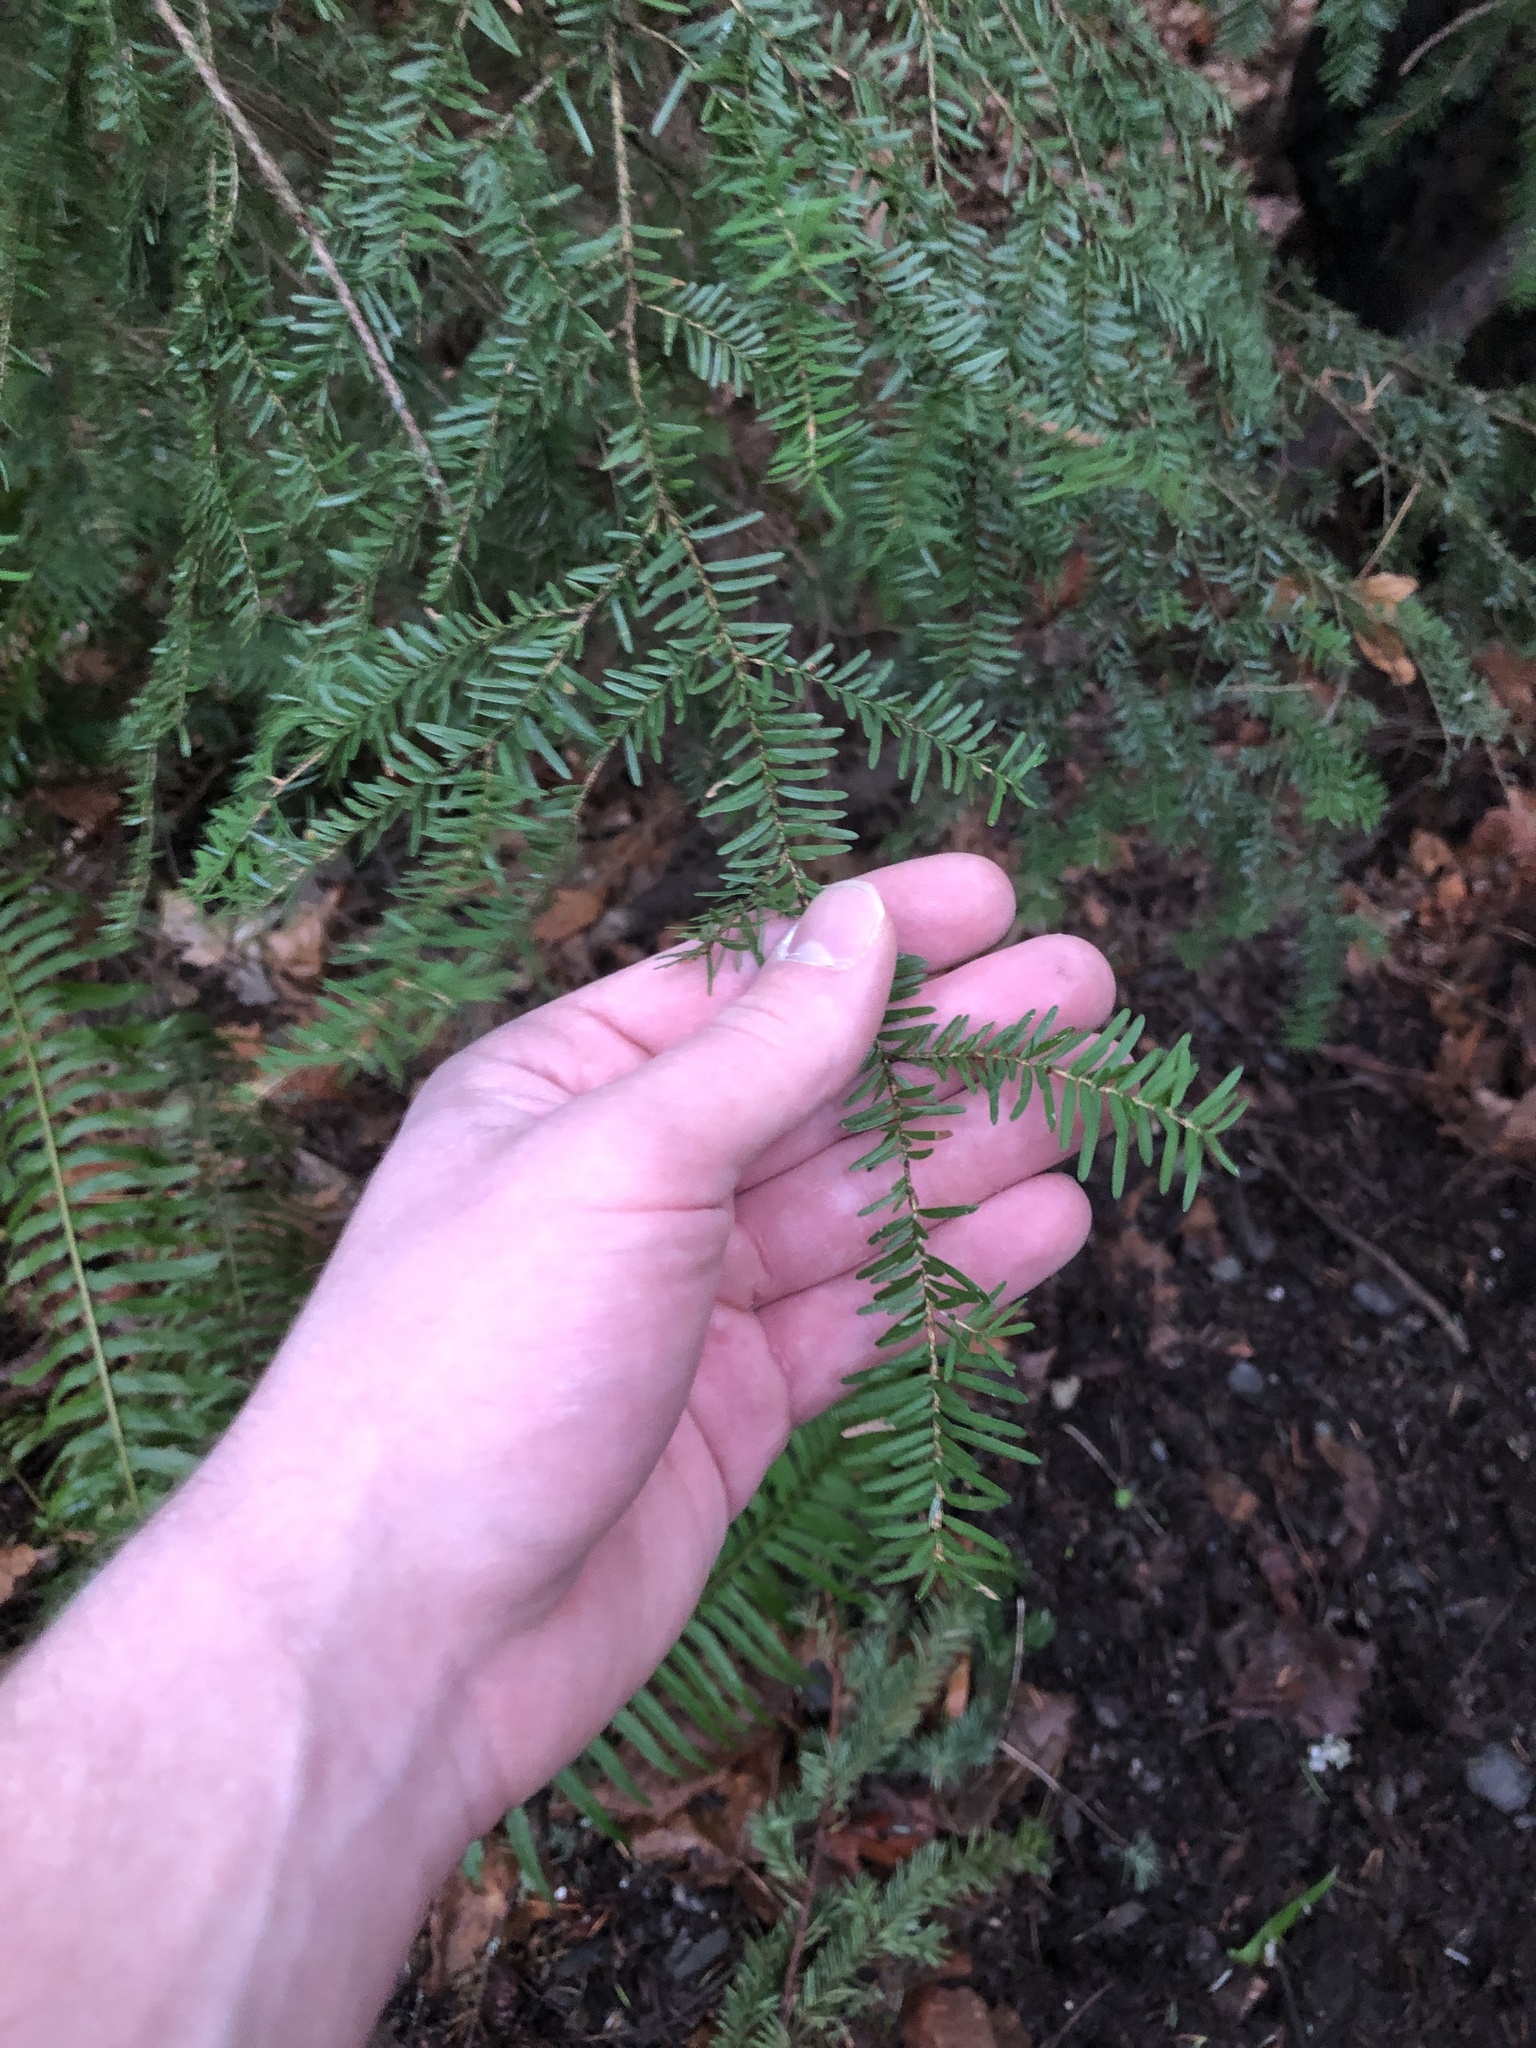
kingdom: Plantae
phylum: Tracheophyta
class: Pinopsida
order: Pinales
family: Pinaceae
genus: Tsuga
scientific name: Tsuga heterophylla
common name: Western hemlock
